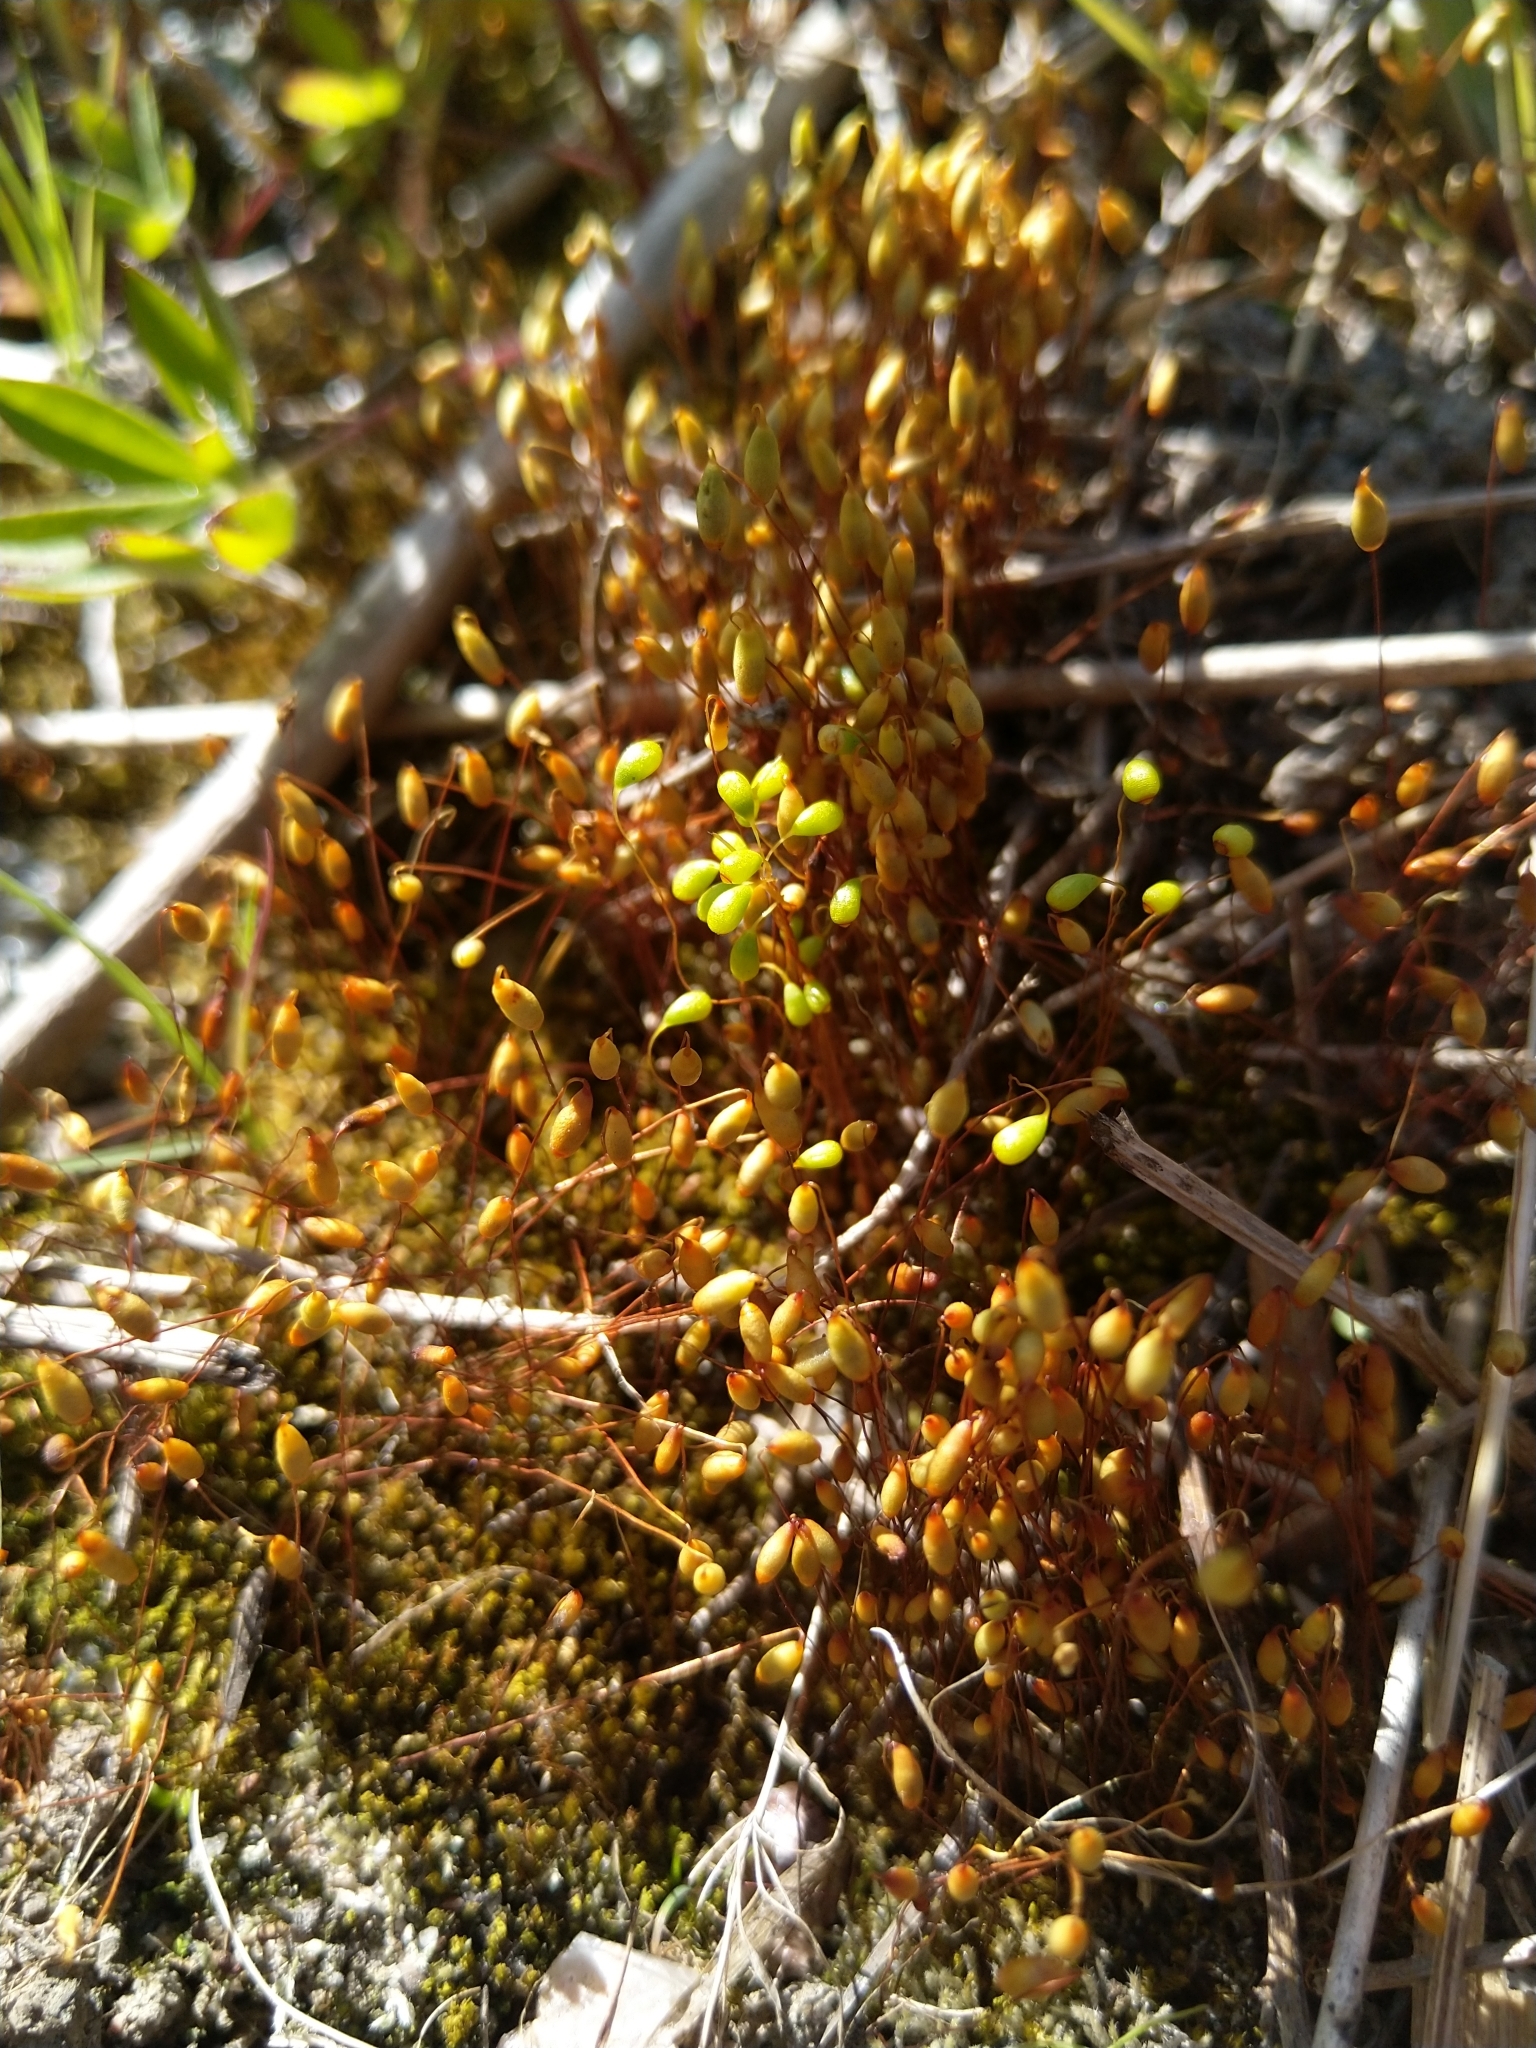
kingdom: Plantae
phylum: Bryophyta
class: Bryopsida
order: Funariales
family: Funariaceae
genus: Funaria
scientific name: Funaria hygrometrica
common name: Common cord moss
